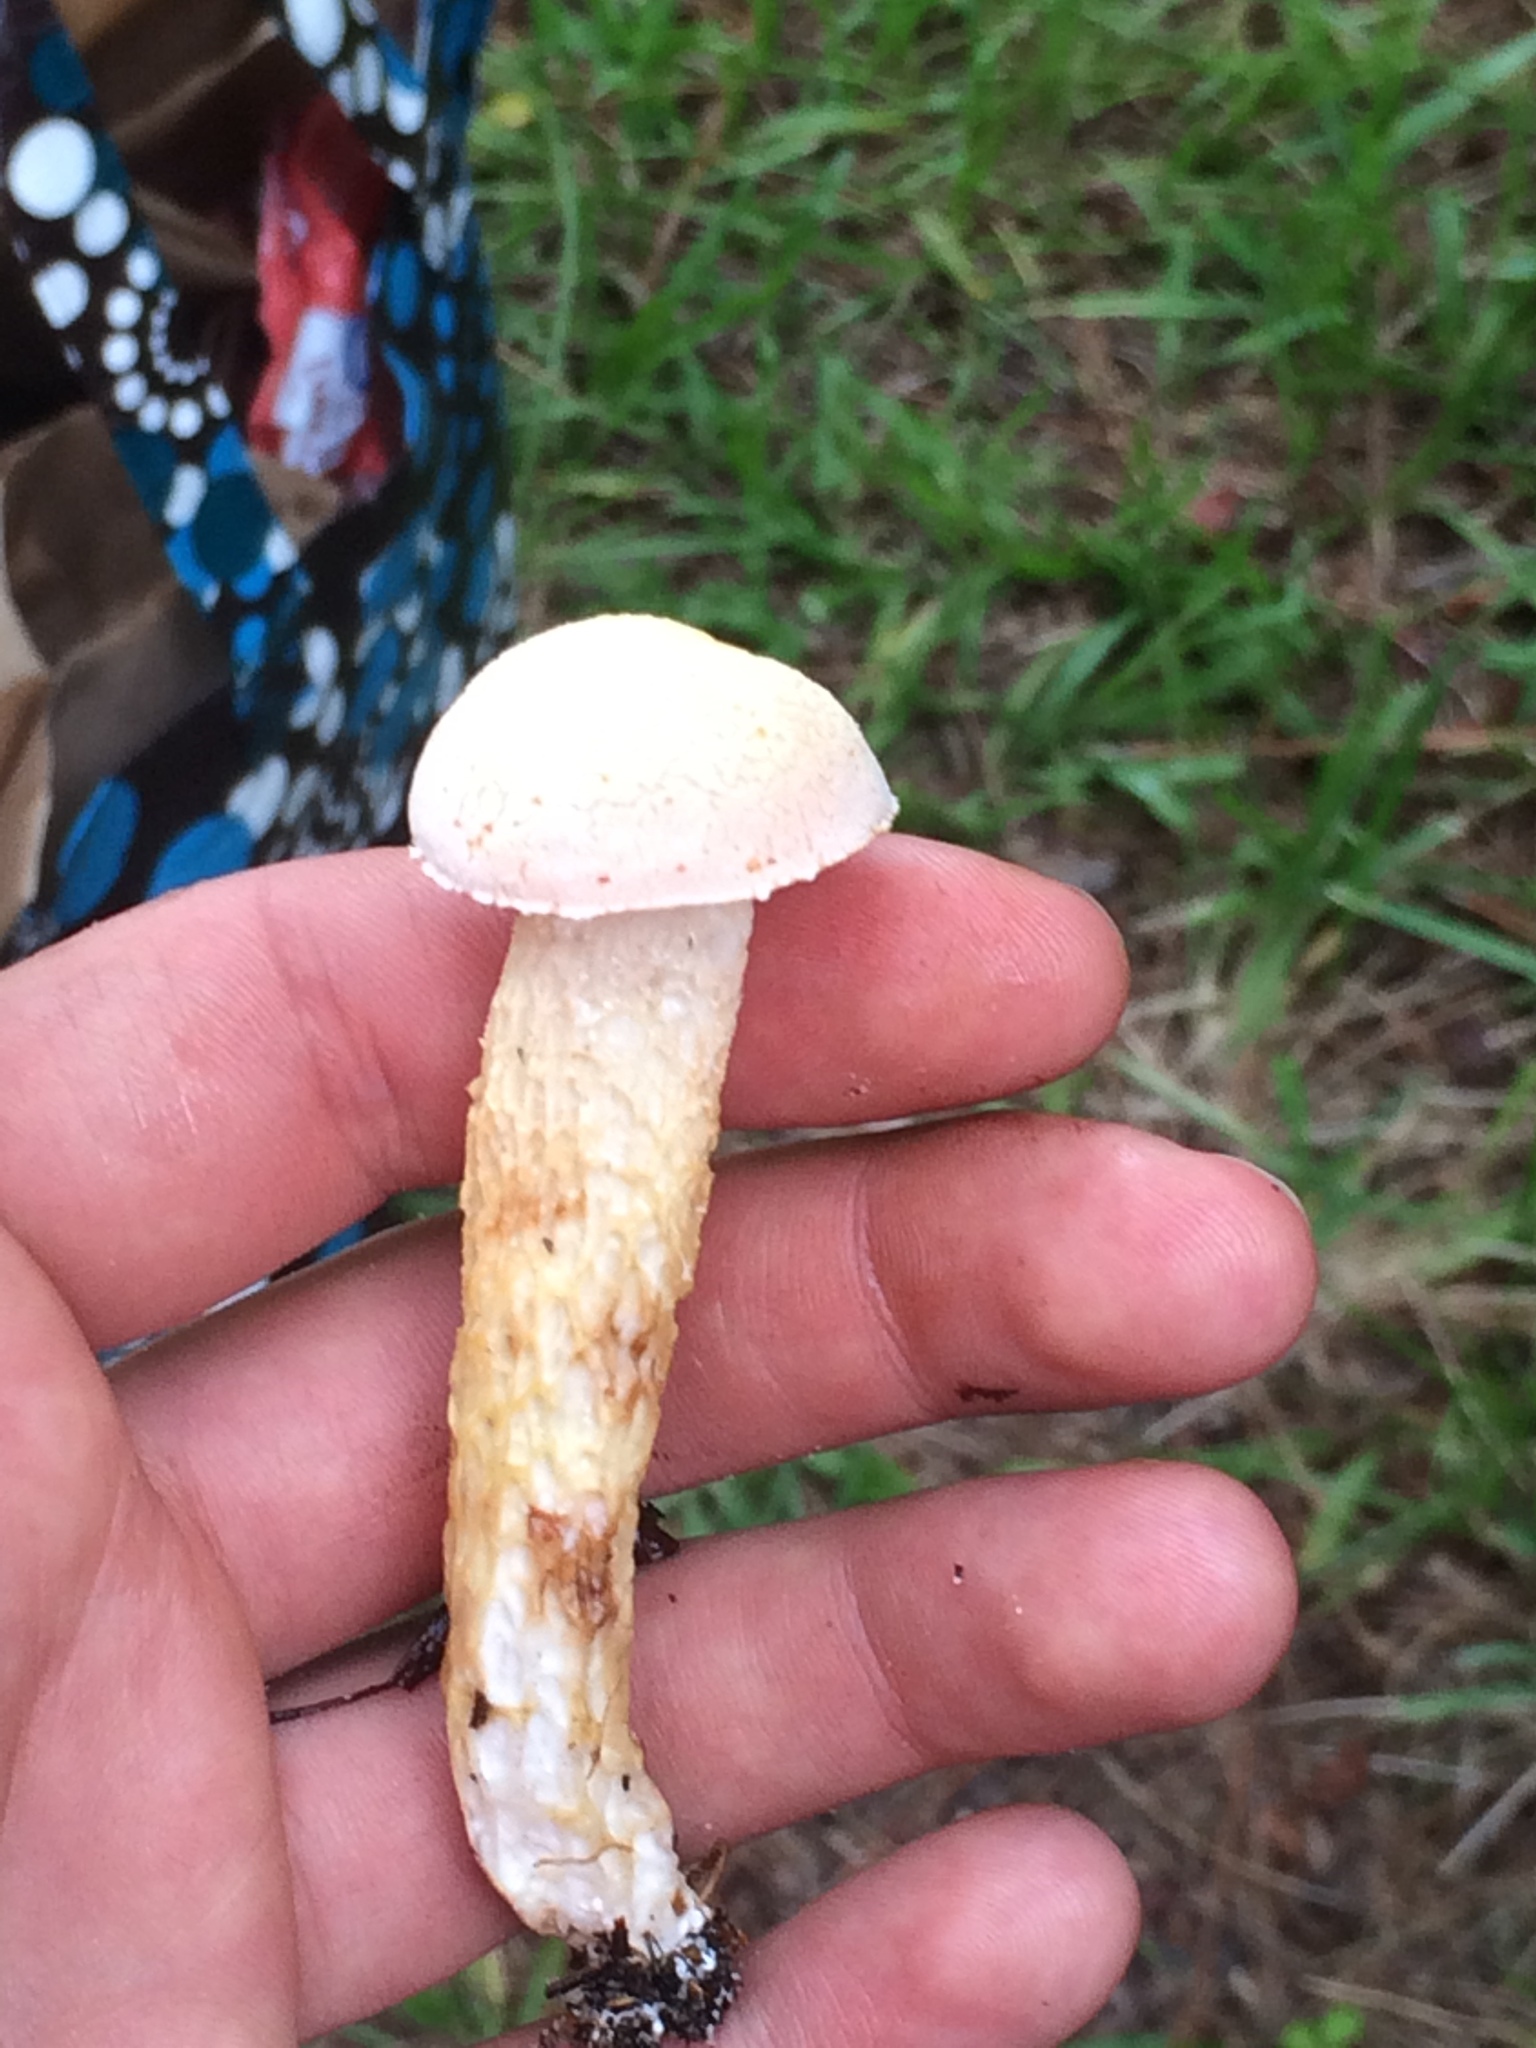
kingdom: Fungi
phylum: Basidiomycota
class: Agaricomycetes
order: Boletales
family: Boletaceae
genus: Austroboletus
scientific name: Austroboletus subflavidus
